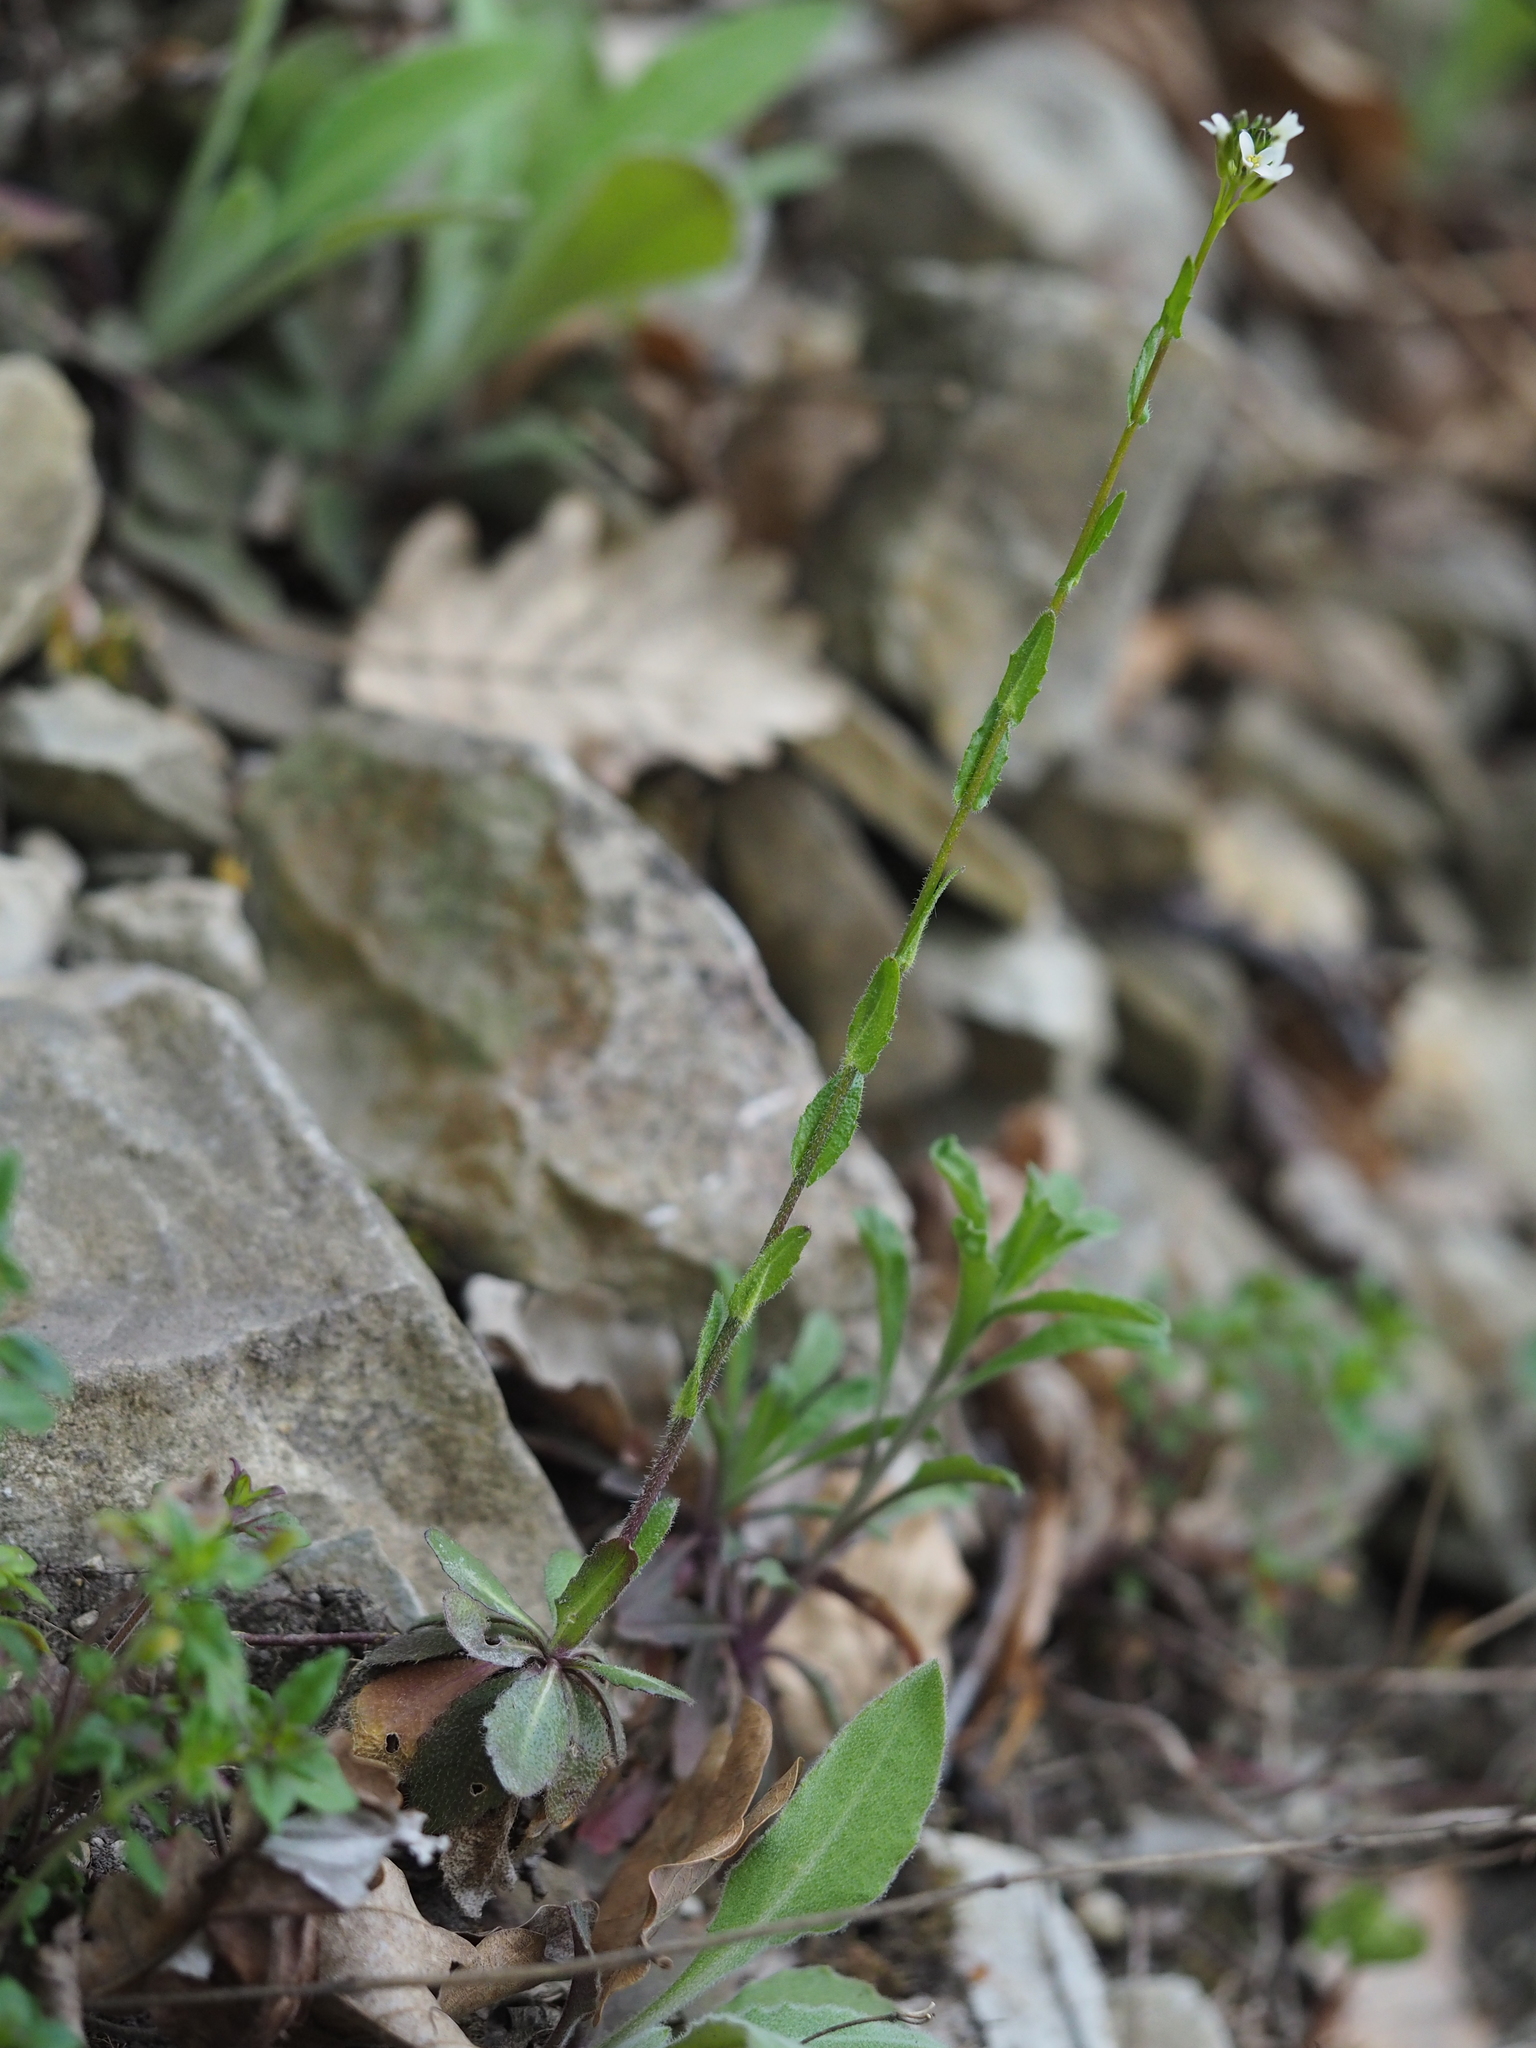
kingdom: Plantae
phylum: Tracheophyta
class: Magnoliopsida
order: Brassicales
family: Brassicaceae
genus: Arabis
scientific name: Arabis hirsuta
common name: Hairy rock-cress
